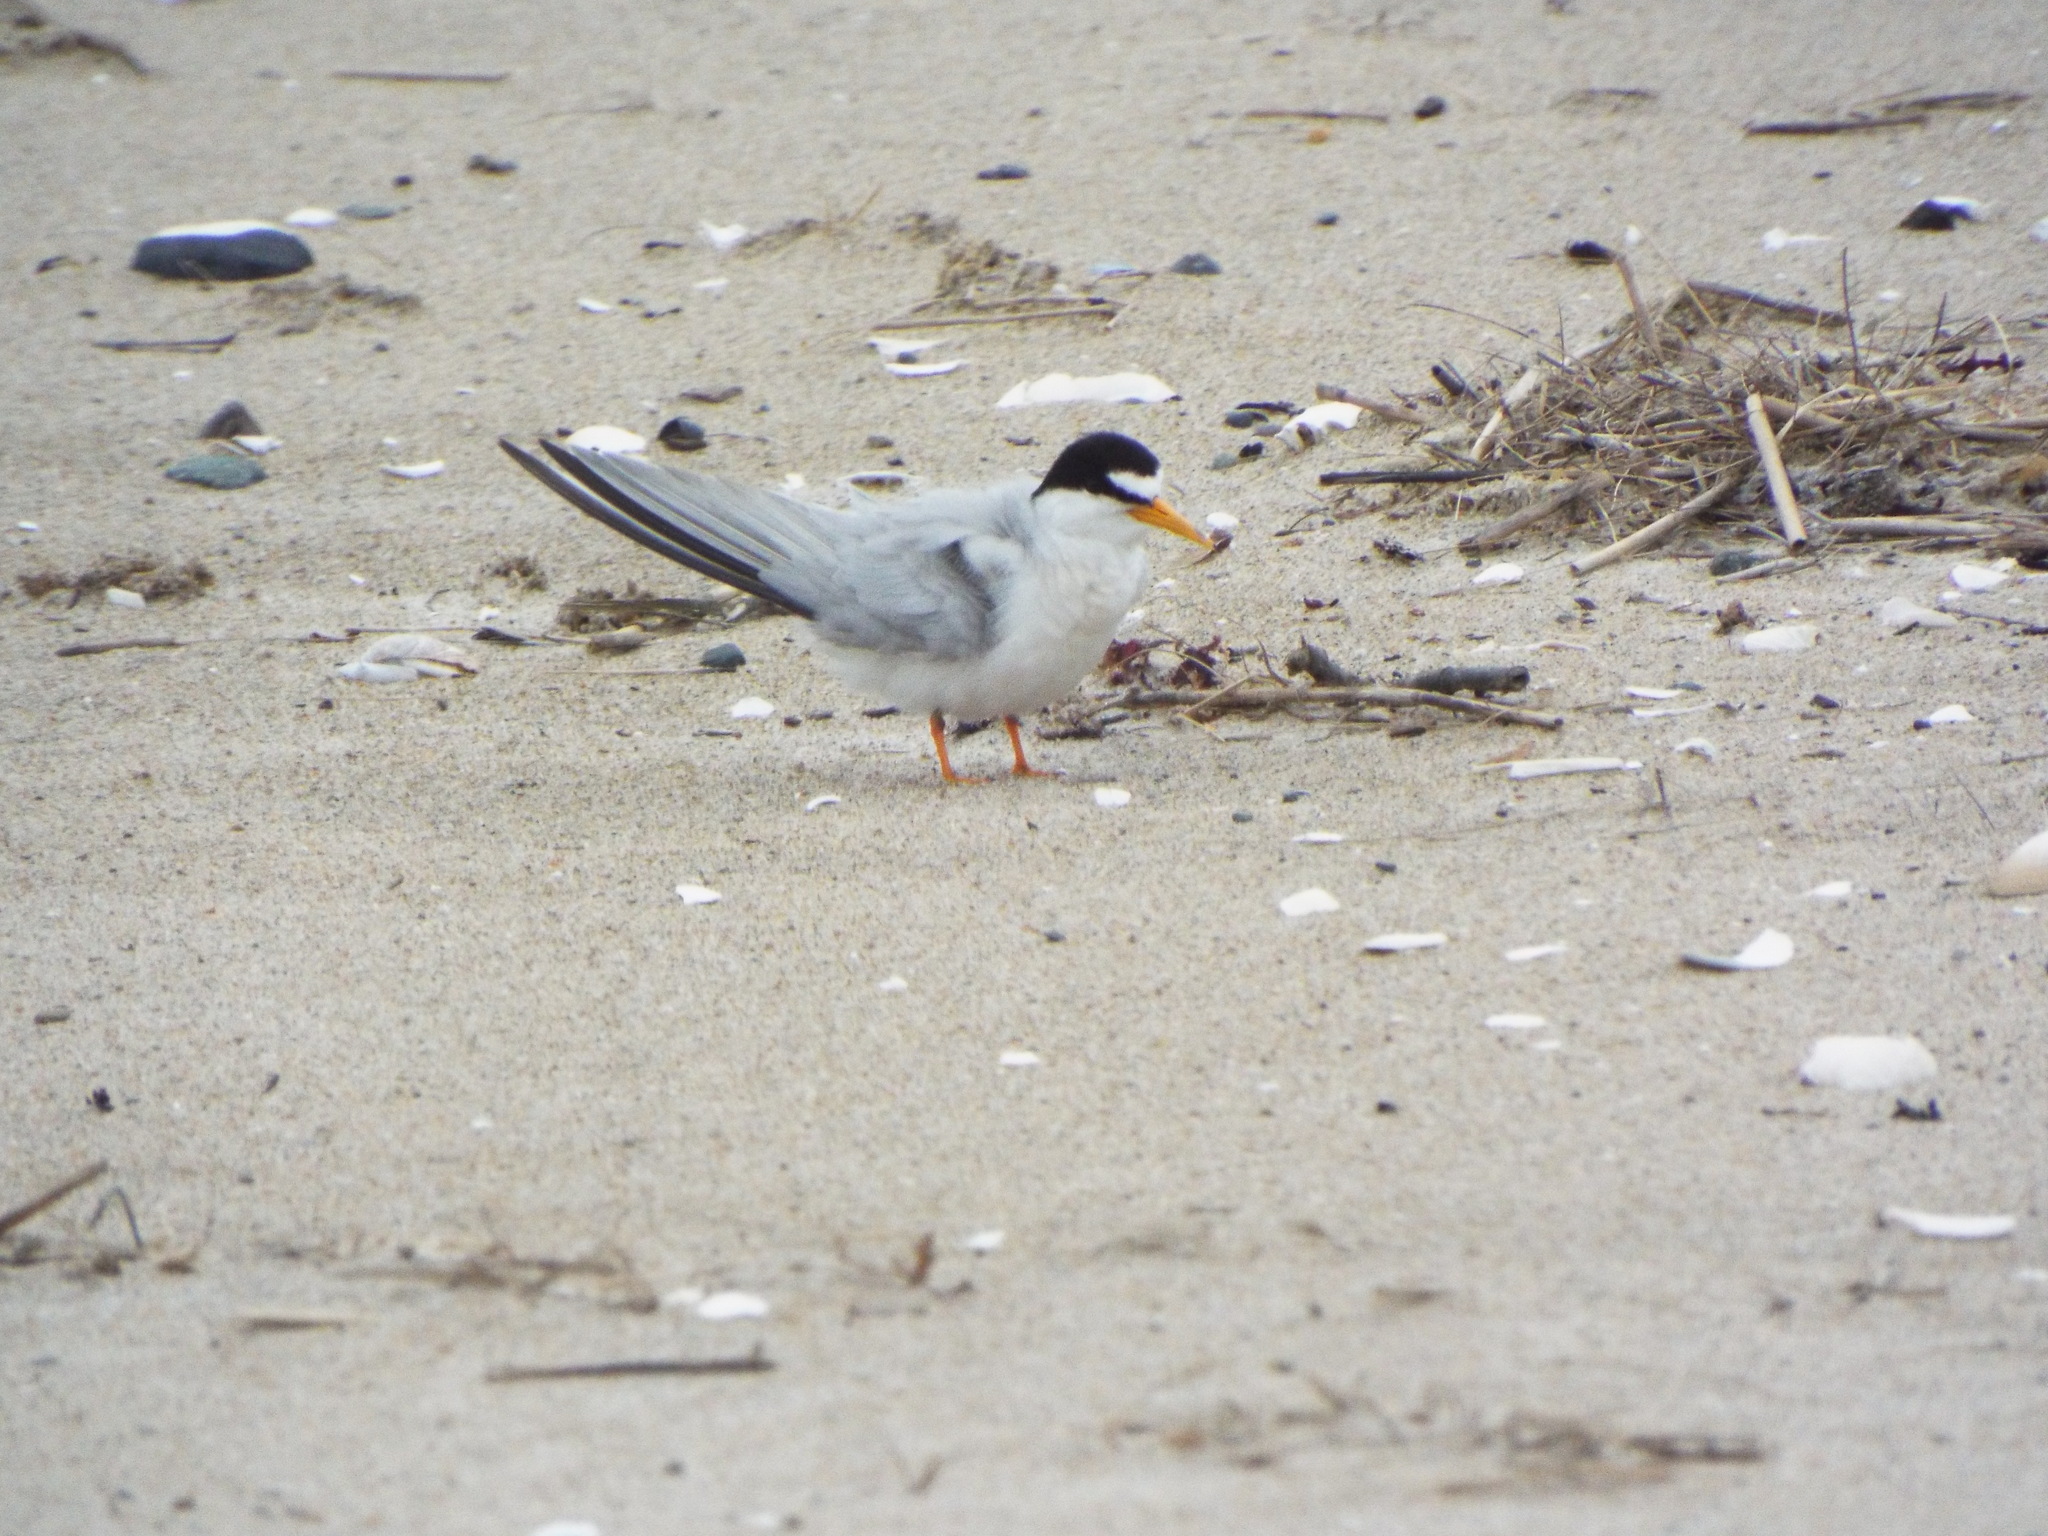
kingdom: Animalia
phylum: Chordata
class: Aves
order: Charadriiformes
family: Laridae
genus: Sternula
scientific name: Sternula antillarum
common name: Least tern
